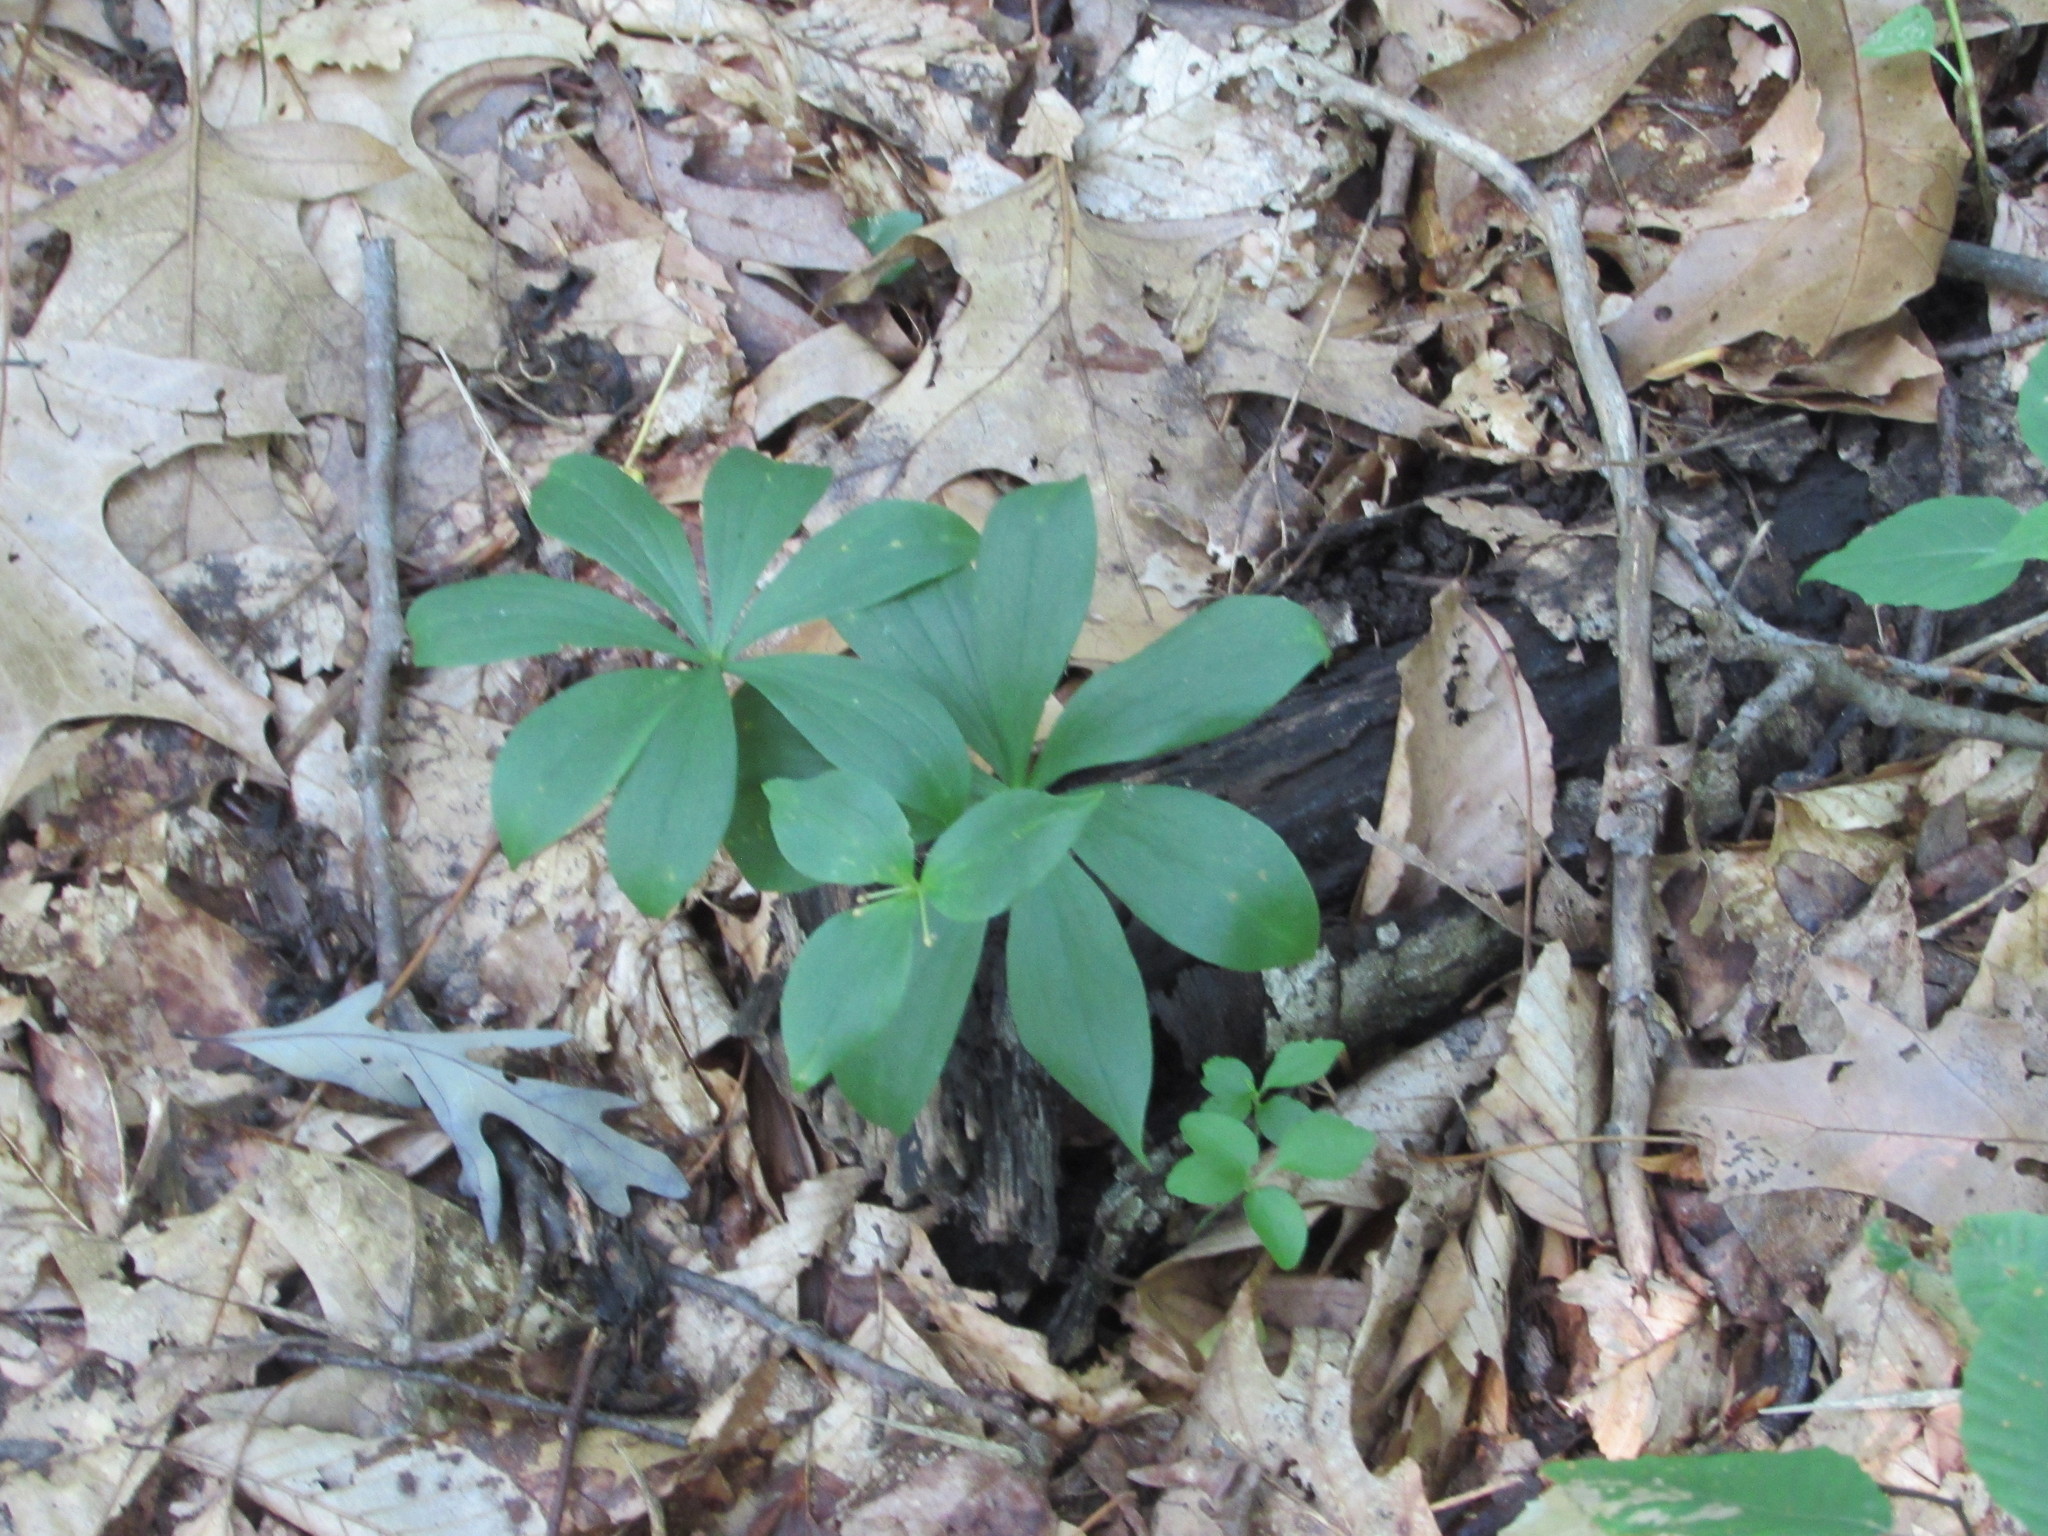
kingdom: Plantae
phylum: Tracheophyta
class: Liliopsida
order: Liliales
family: Liliaceae
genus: Medeola
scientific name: Medeola virginiana
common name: Indian cucumber-root
